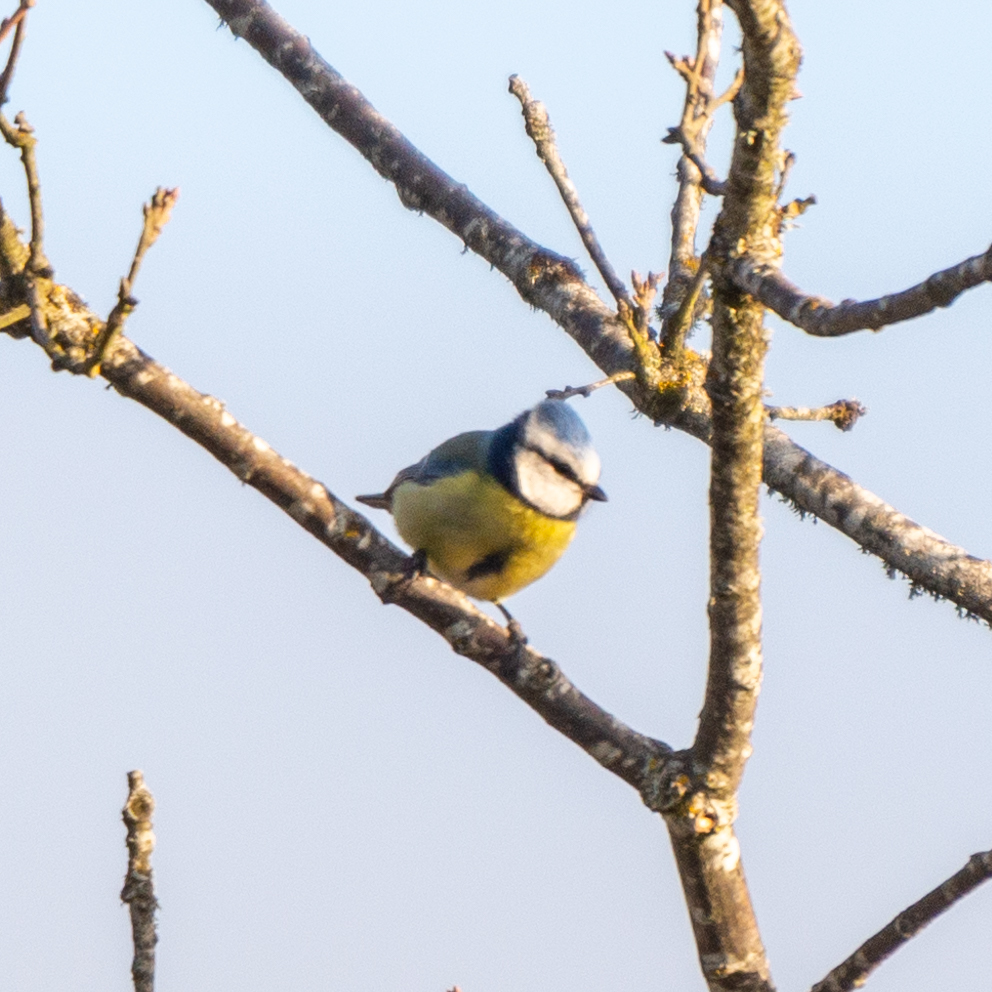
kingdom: Animalia
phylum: Chordata
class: Aves
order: Passeriformes
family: Paridae
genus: Cyanistes
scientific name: Cyanistes caeruleus
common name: Eurasian blue tit
